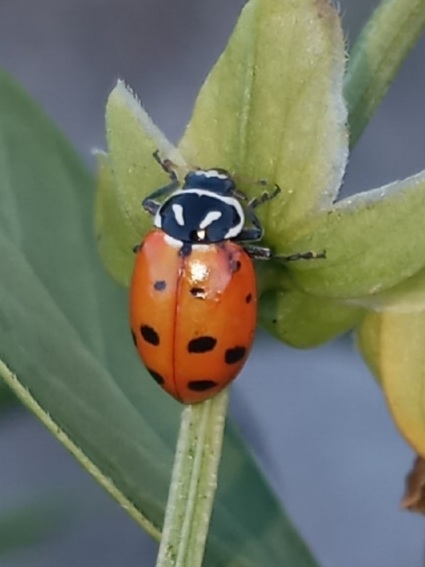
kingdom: Animalia
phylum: Arthropoda
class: Insecta
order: Coleoptera
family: Coccinellidae
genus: Hippodamia
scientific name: Hippodamia convergens
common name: Convergent lady beetle
